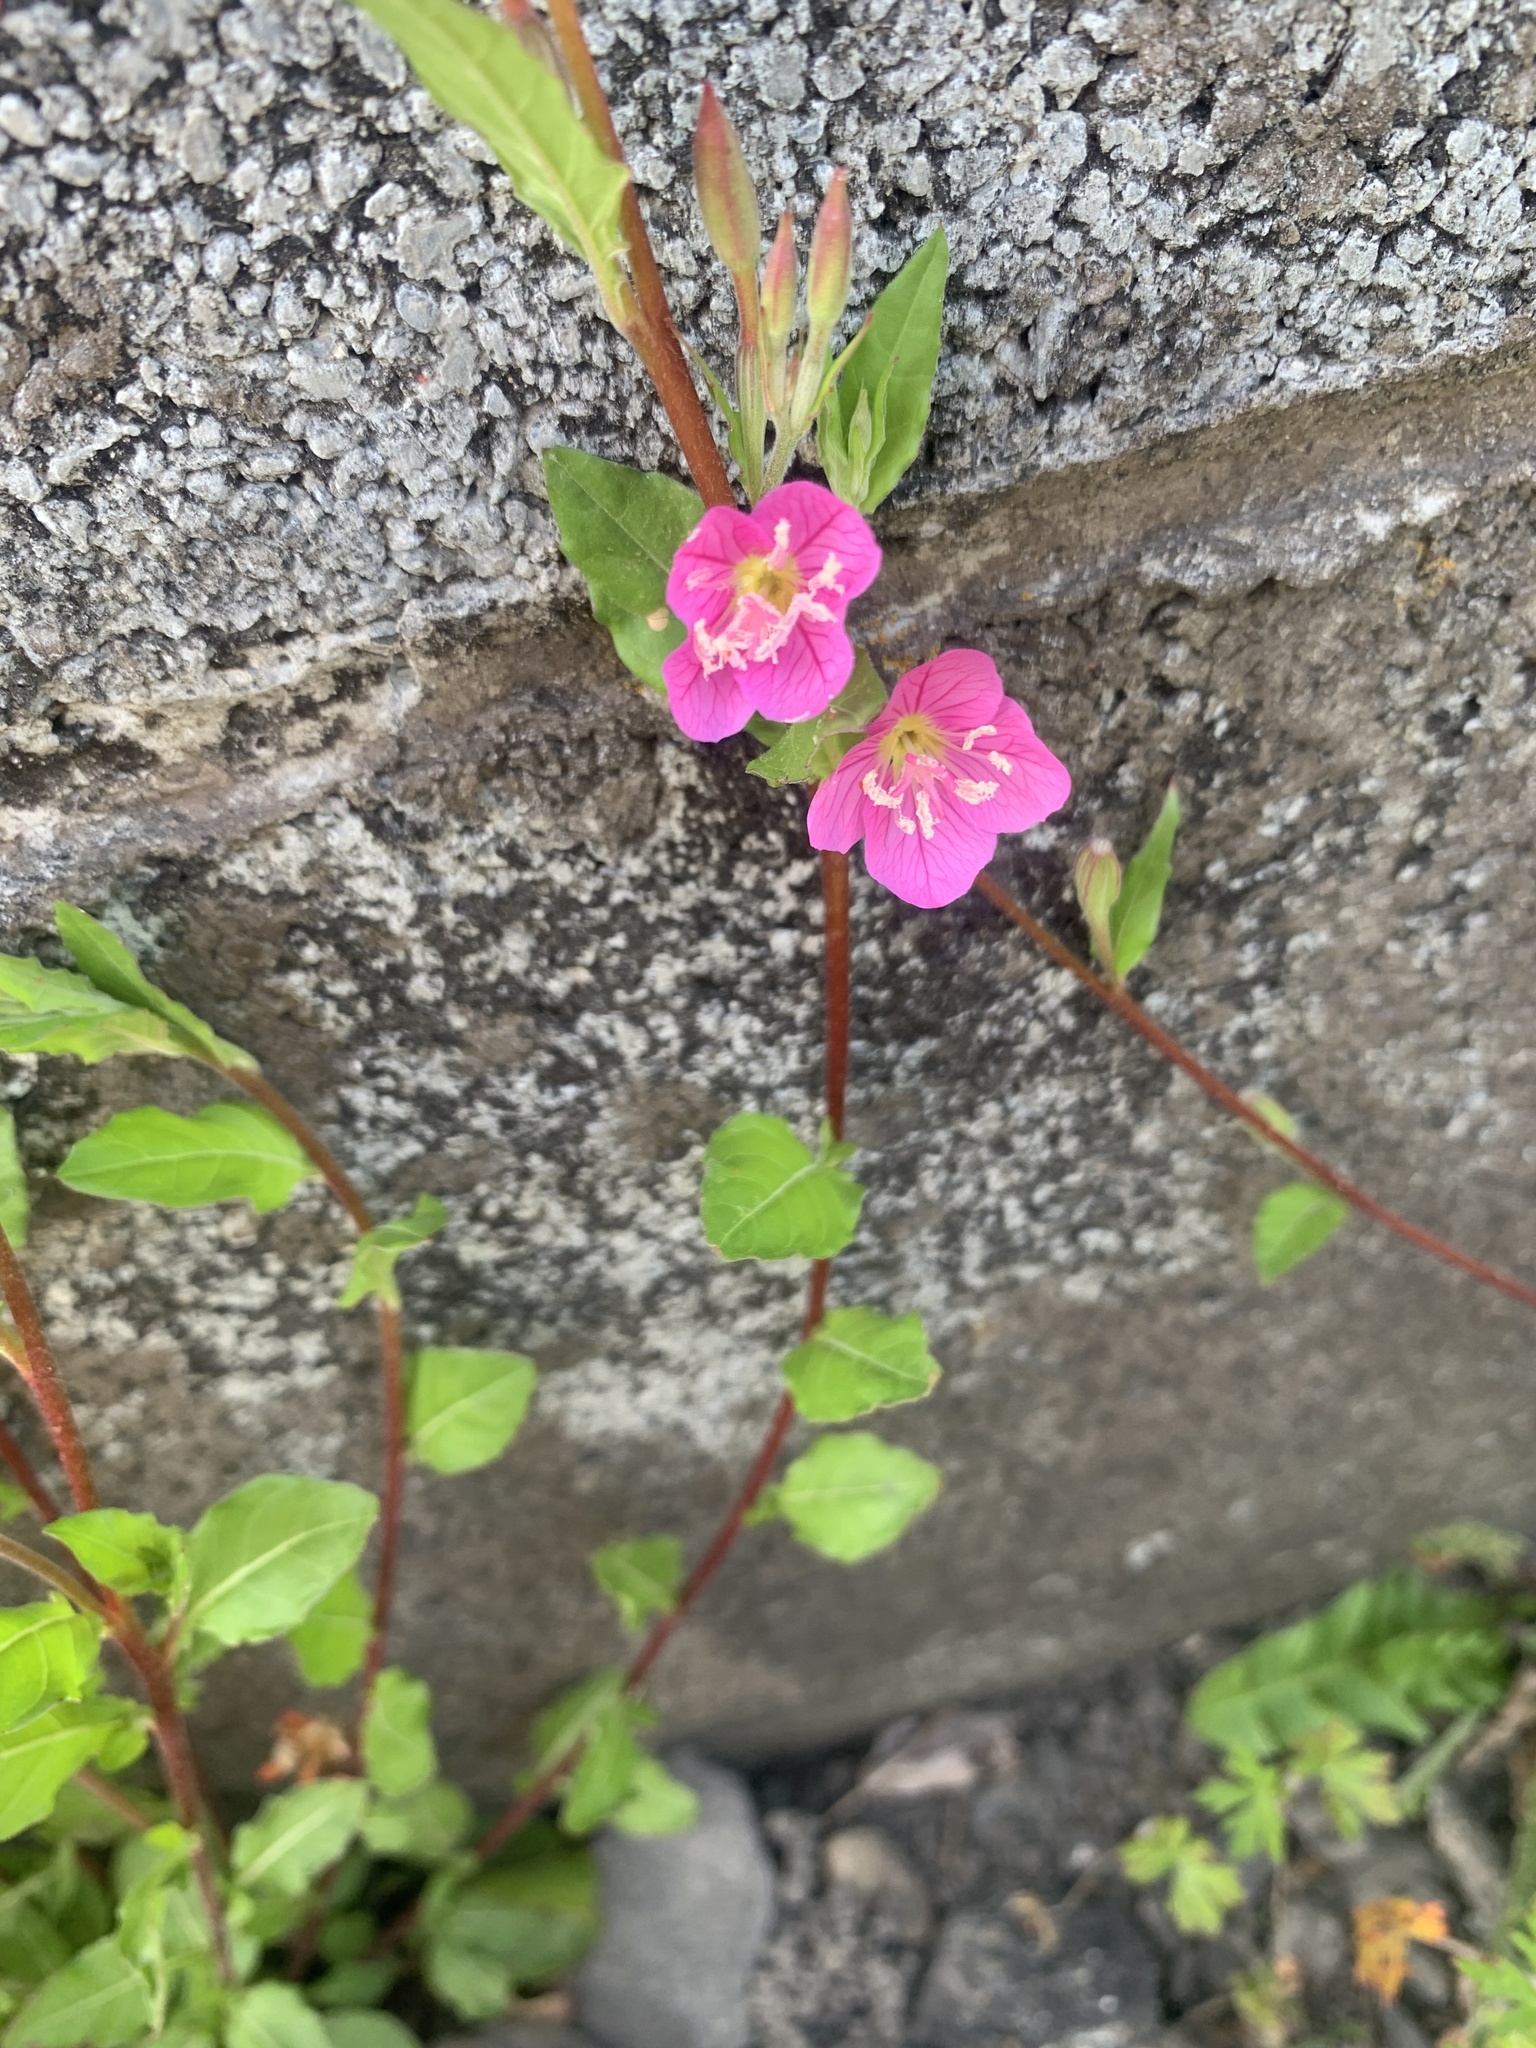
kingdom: Plantae
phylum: Tracheophyta
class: Magnoliopsida
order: Myrtales
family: Onagraceae
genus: Oenothera
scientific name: Oenothera rosea
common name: Rosy evening-primrose
